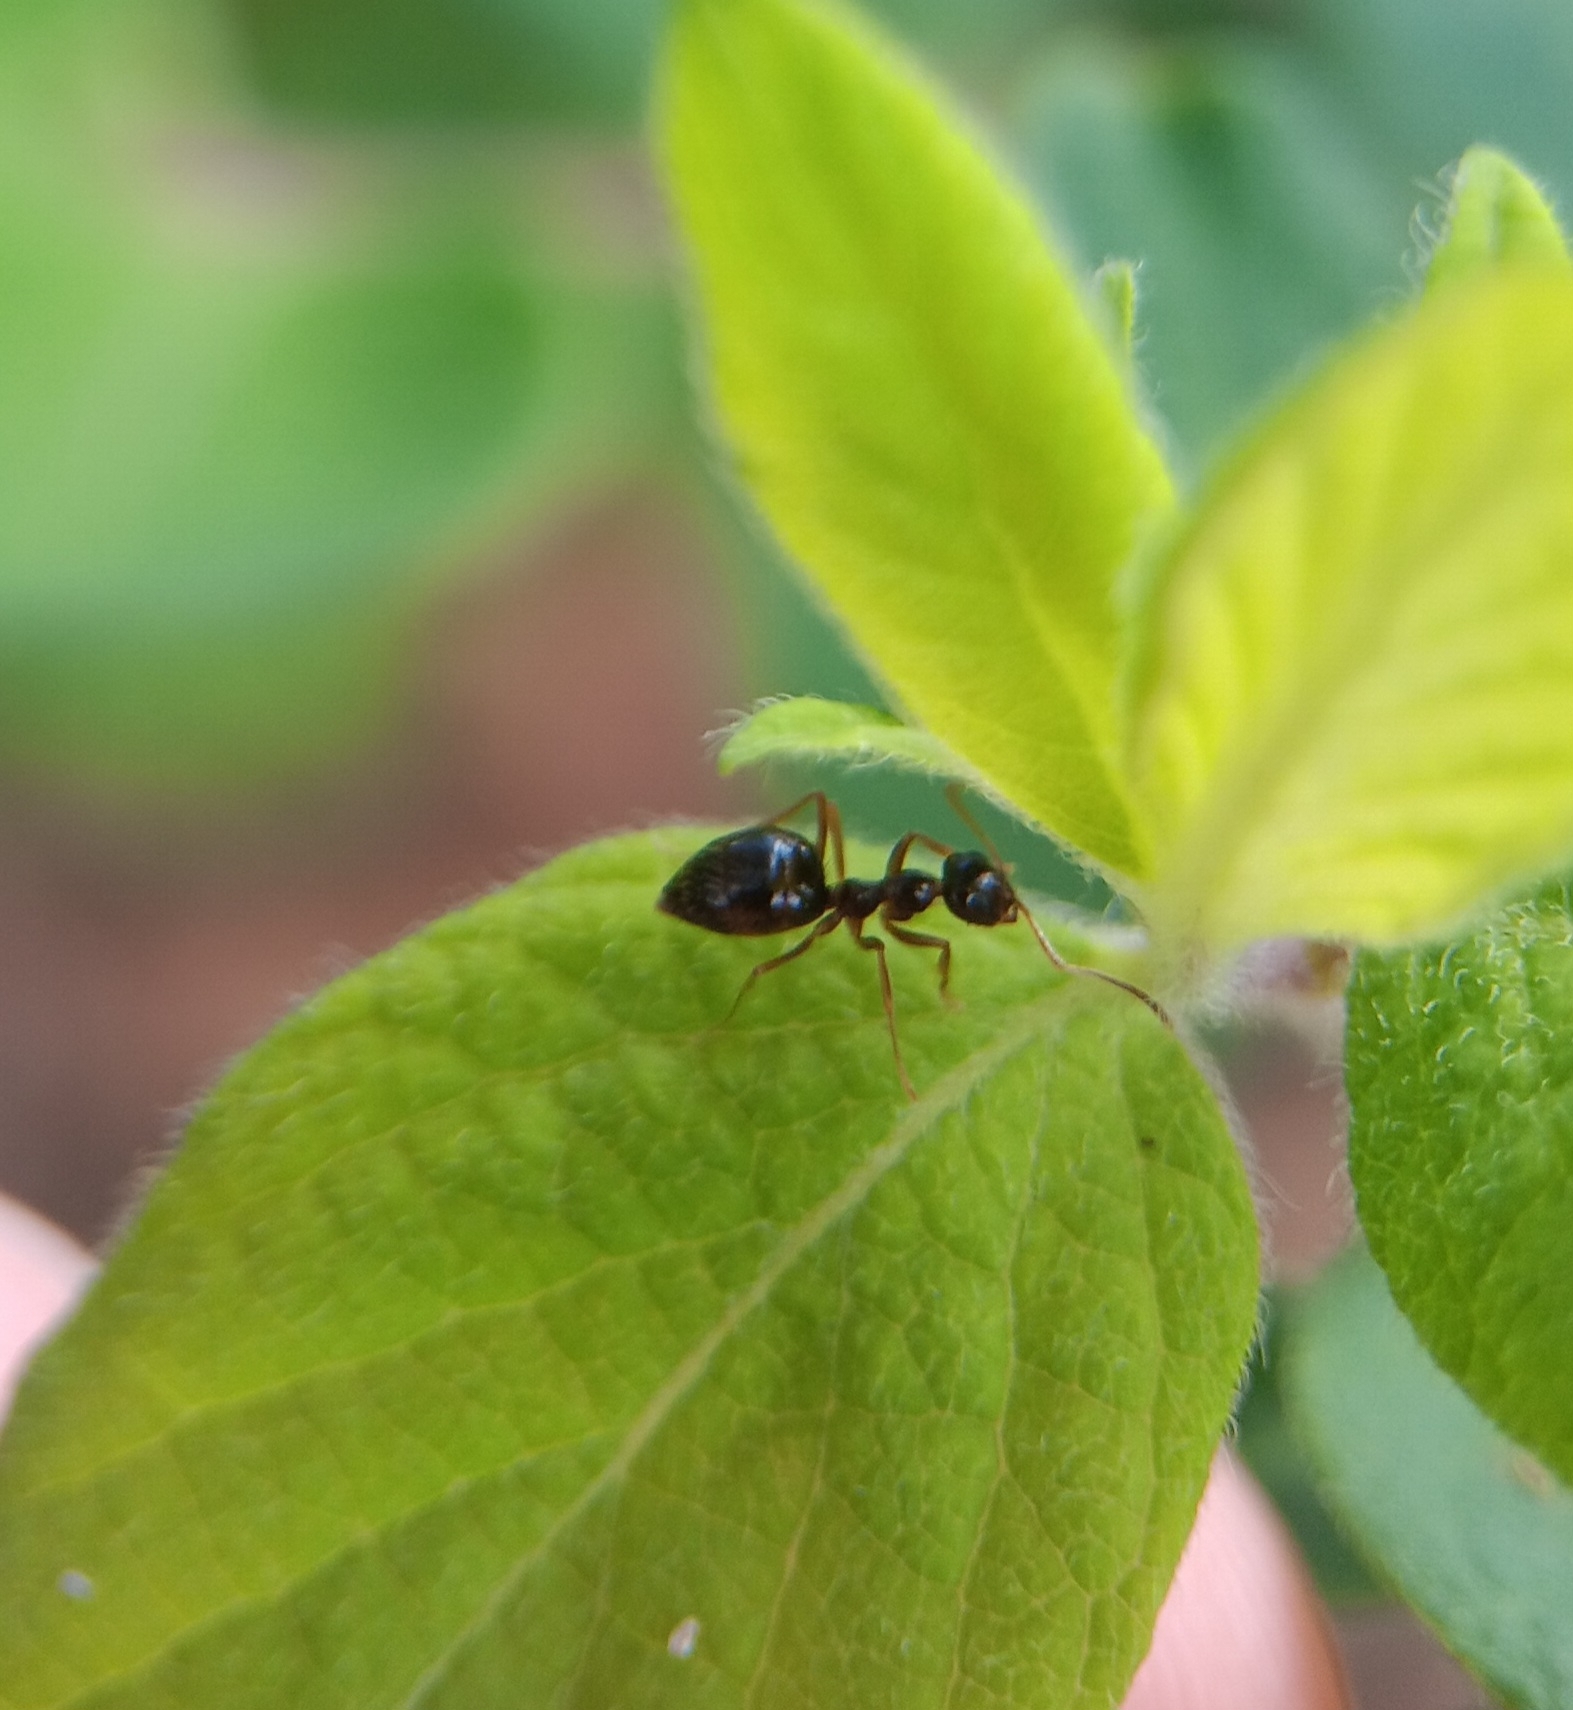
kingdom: Animalia
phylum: Arthropoda
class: Insecta
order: Hymenoptera
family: Formicidae
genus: Prenolepis
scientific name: Prenolepis imparis
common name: Small honey ant
